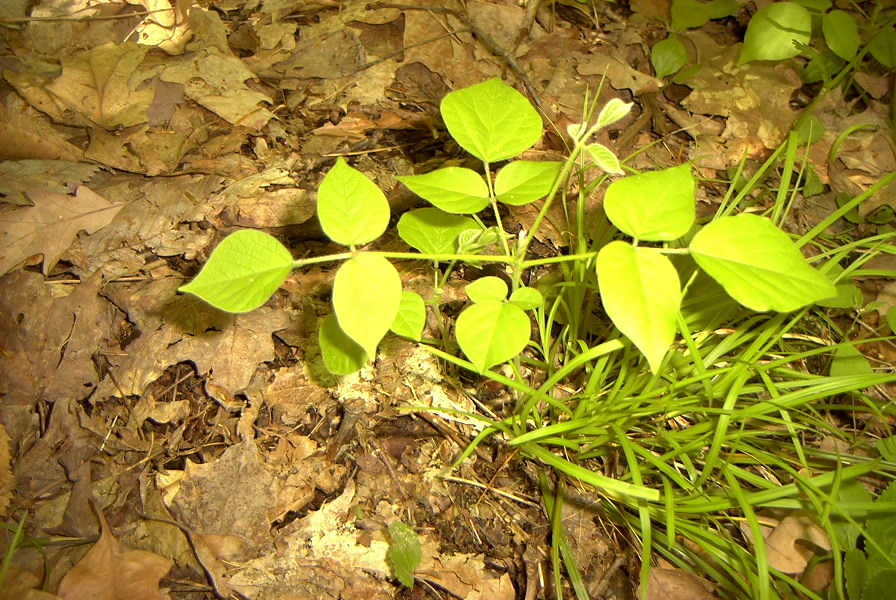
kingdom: Plantae
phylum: Tracheophyta
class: Magnoliopsida
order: Fabales
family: Fabaceae
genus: Hylodesmum
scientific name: Hylodesmum glutinosum
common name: Clustered-leaved tick-trefoil
